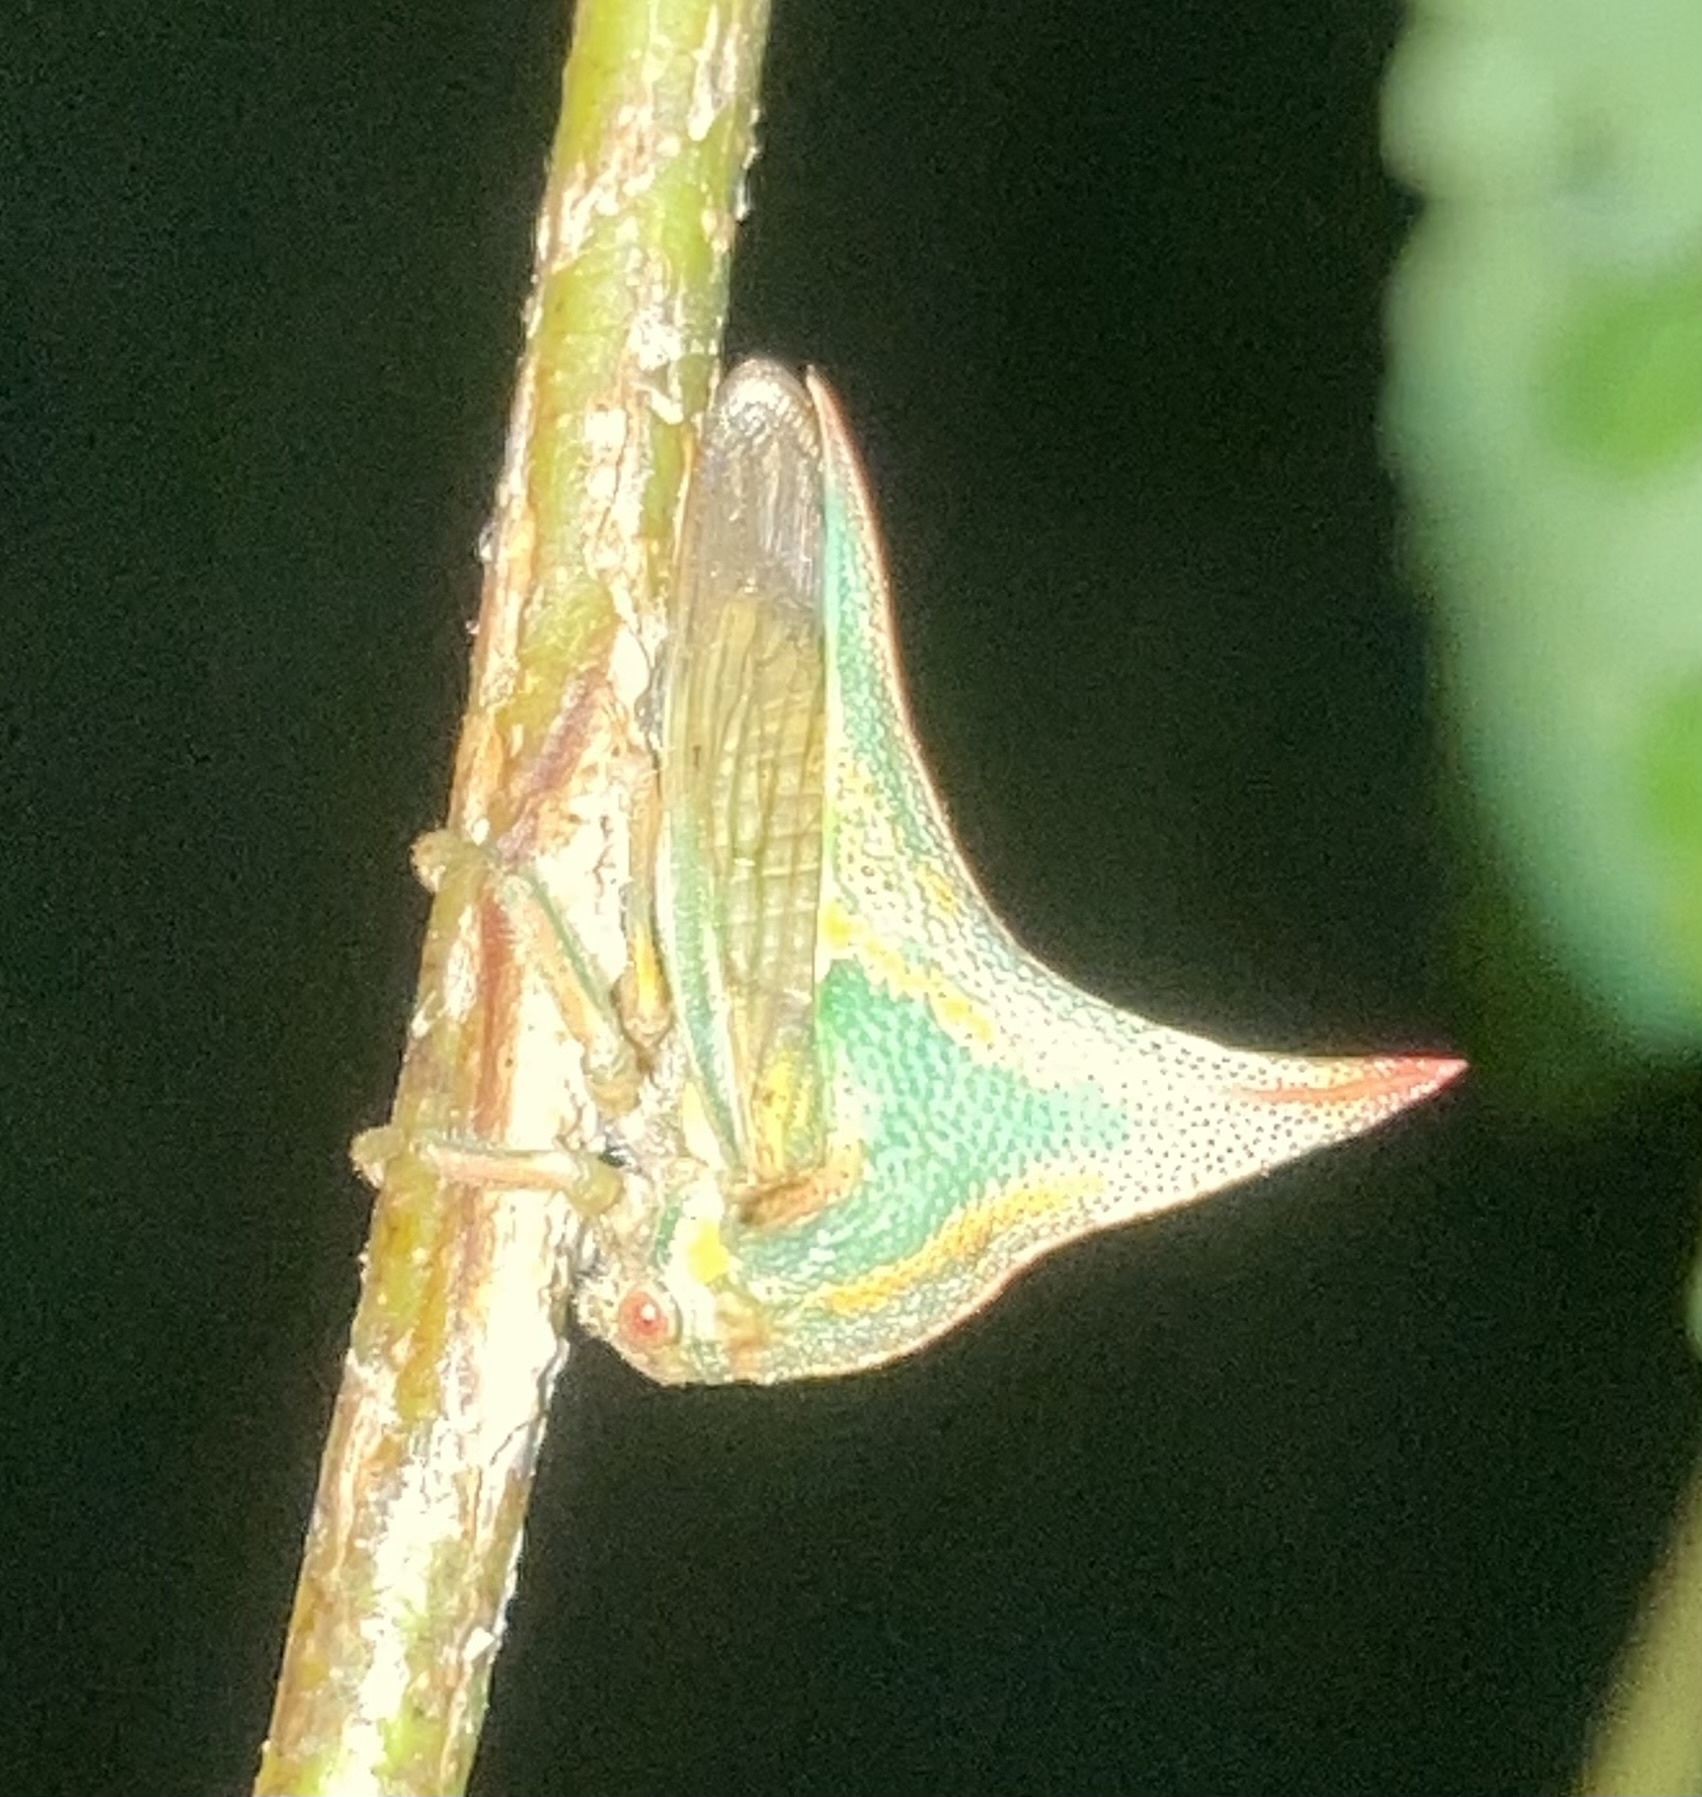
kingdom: Animalia
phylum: Arthropoda
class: Insecta
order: Hemiptera
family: Membracidae
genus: Umbonia
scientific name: Umbonia crassicornis
